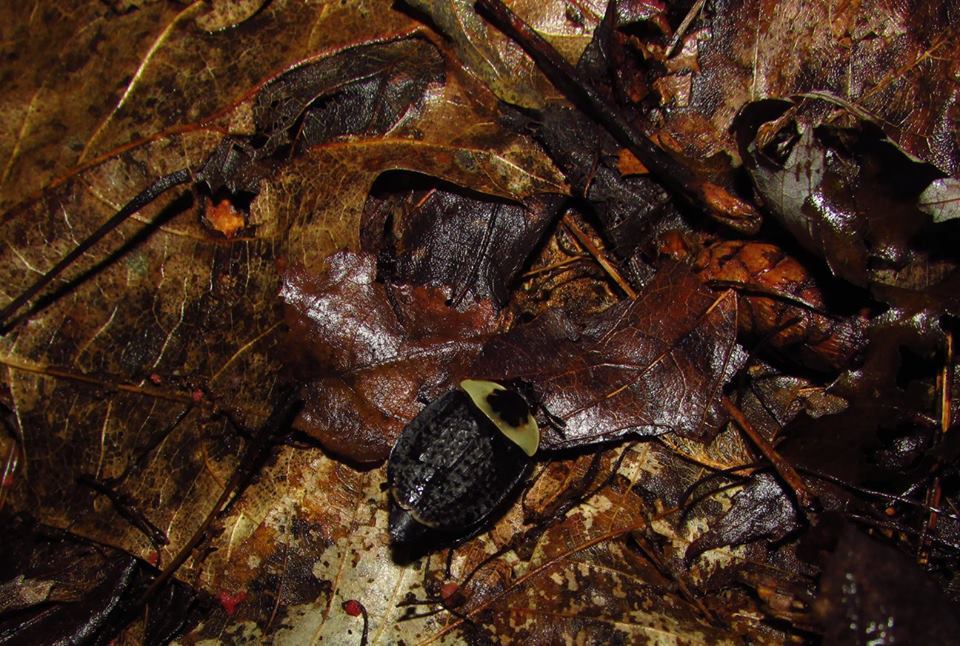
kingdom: Animalia
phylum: Arthropoda
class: Insecta
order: Coleoptera
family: Staphylinidae
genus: Necrophila
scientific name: Necrophila americana
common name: American carrion beetle
